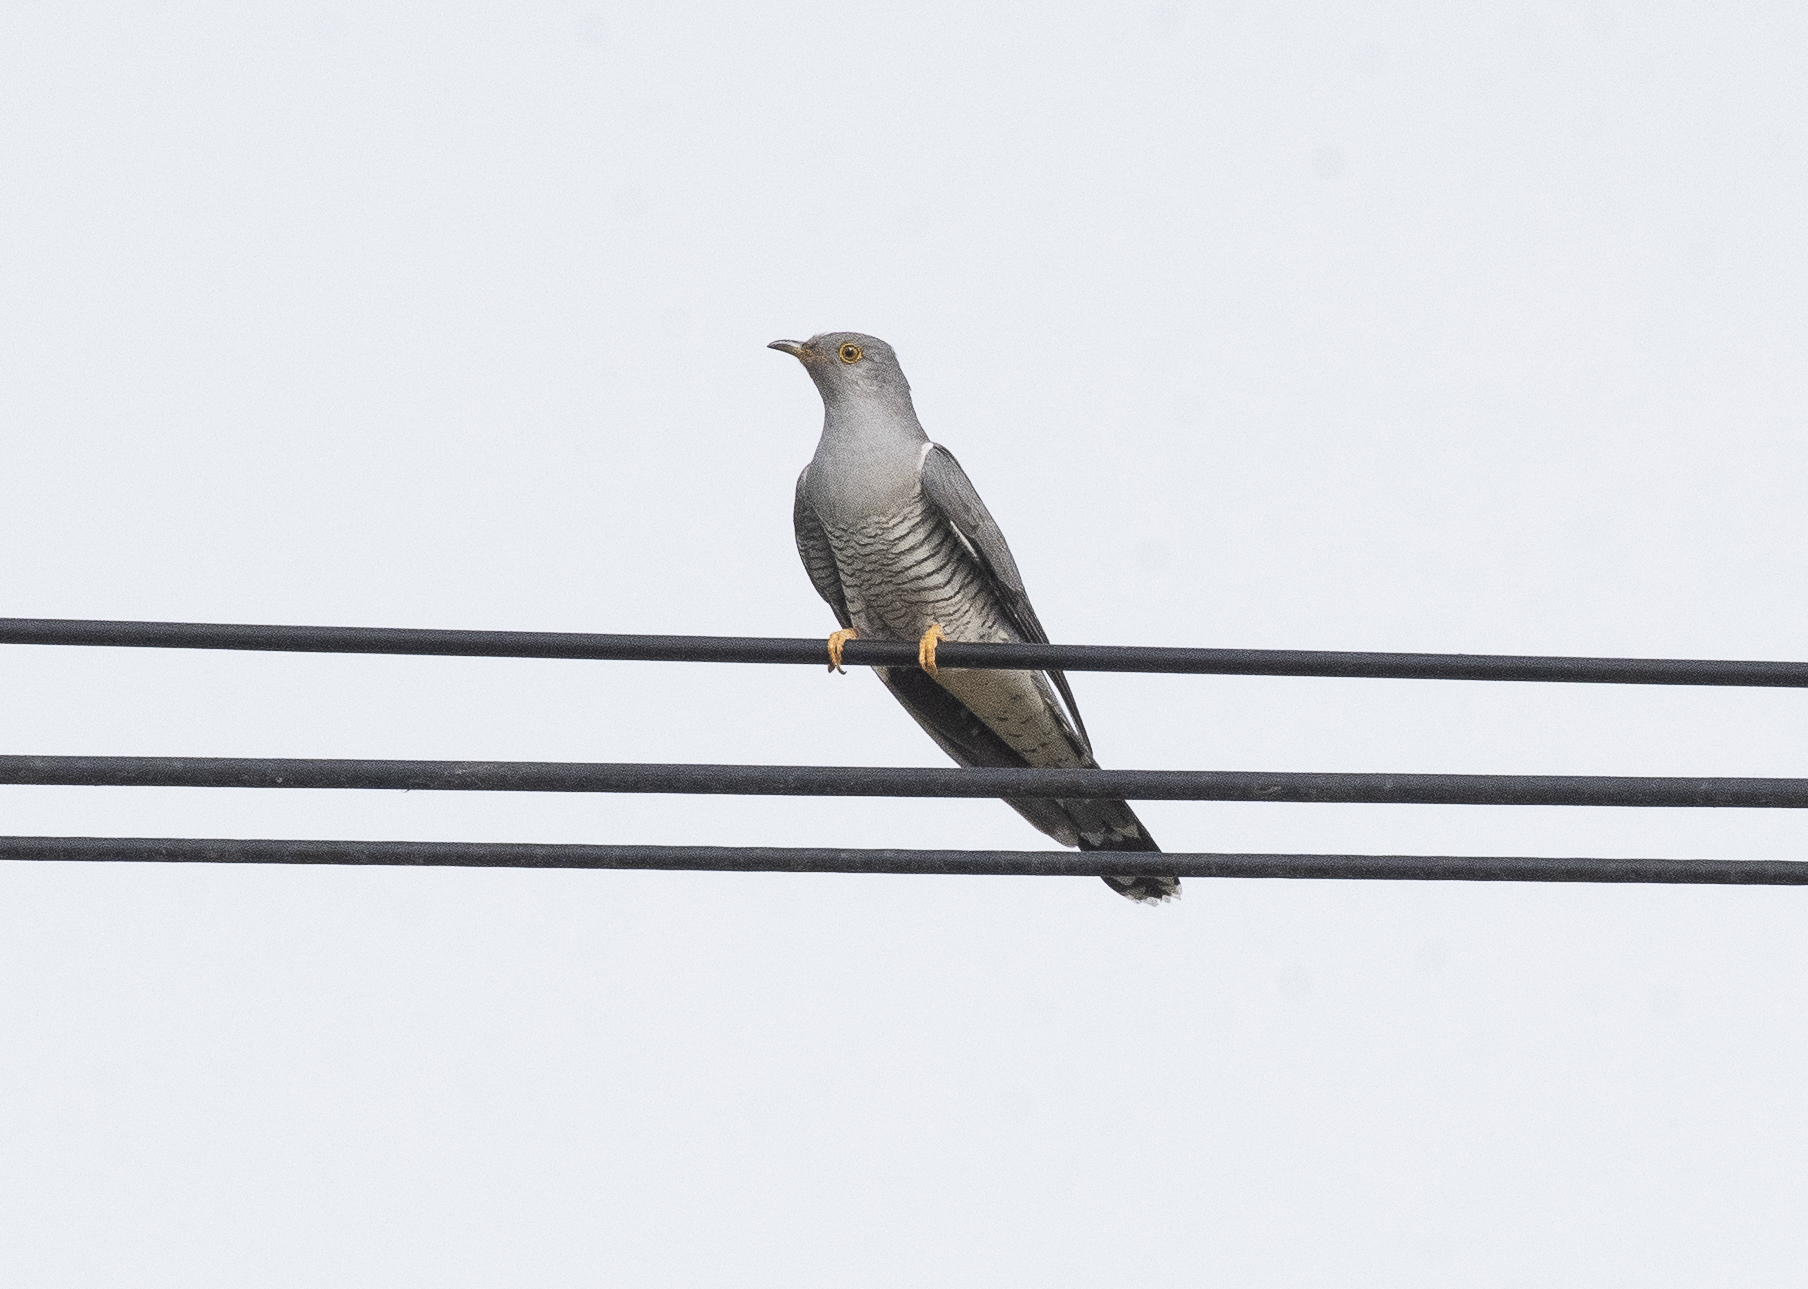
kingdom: Animalia
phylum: Chordata
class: Aves
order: Cuculiformes
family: Cuculidae
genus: Cuculus
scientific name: Cuculus canorus
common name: Common cuckoo
